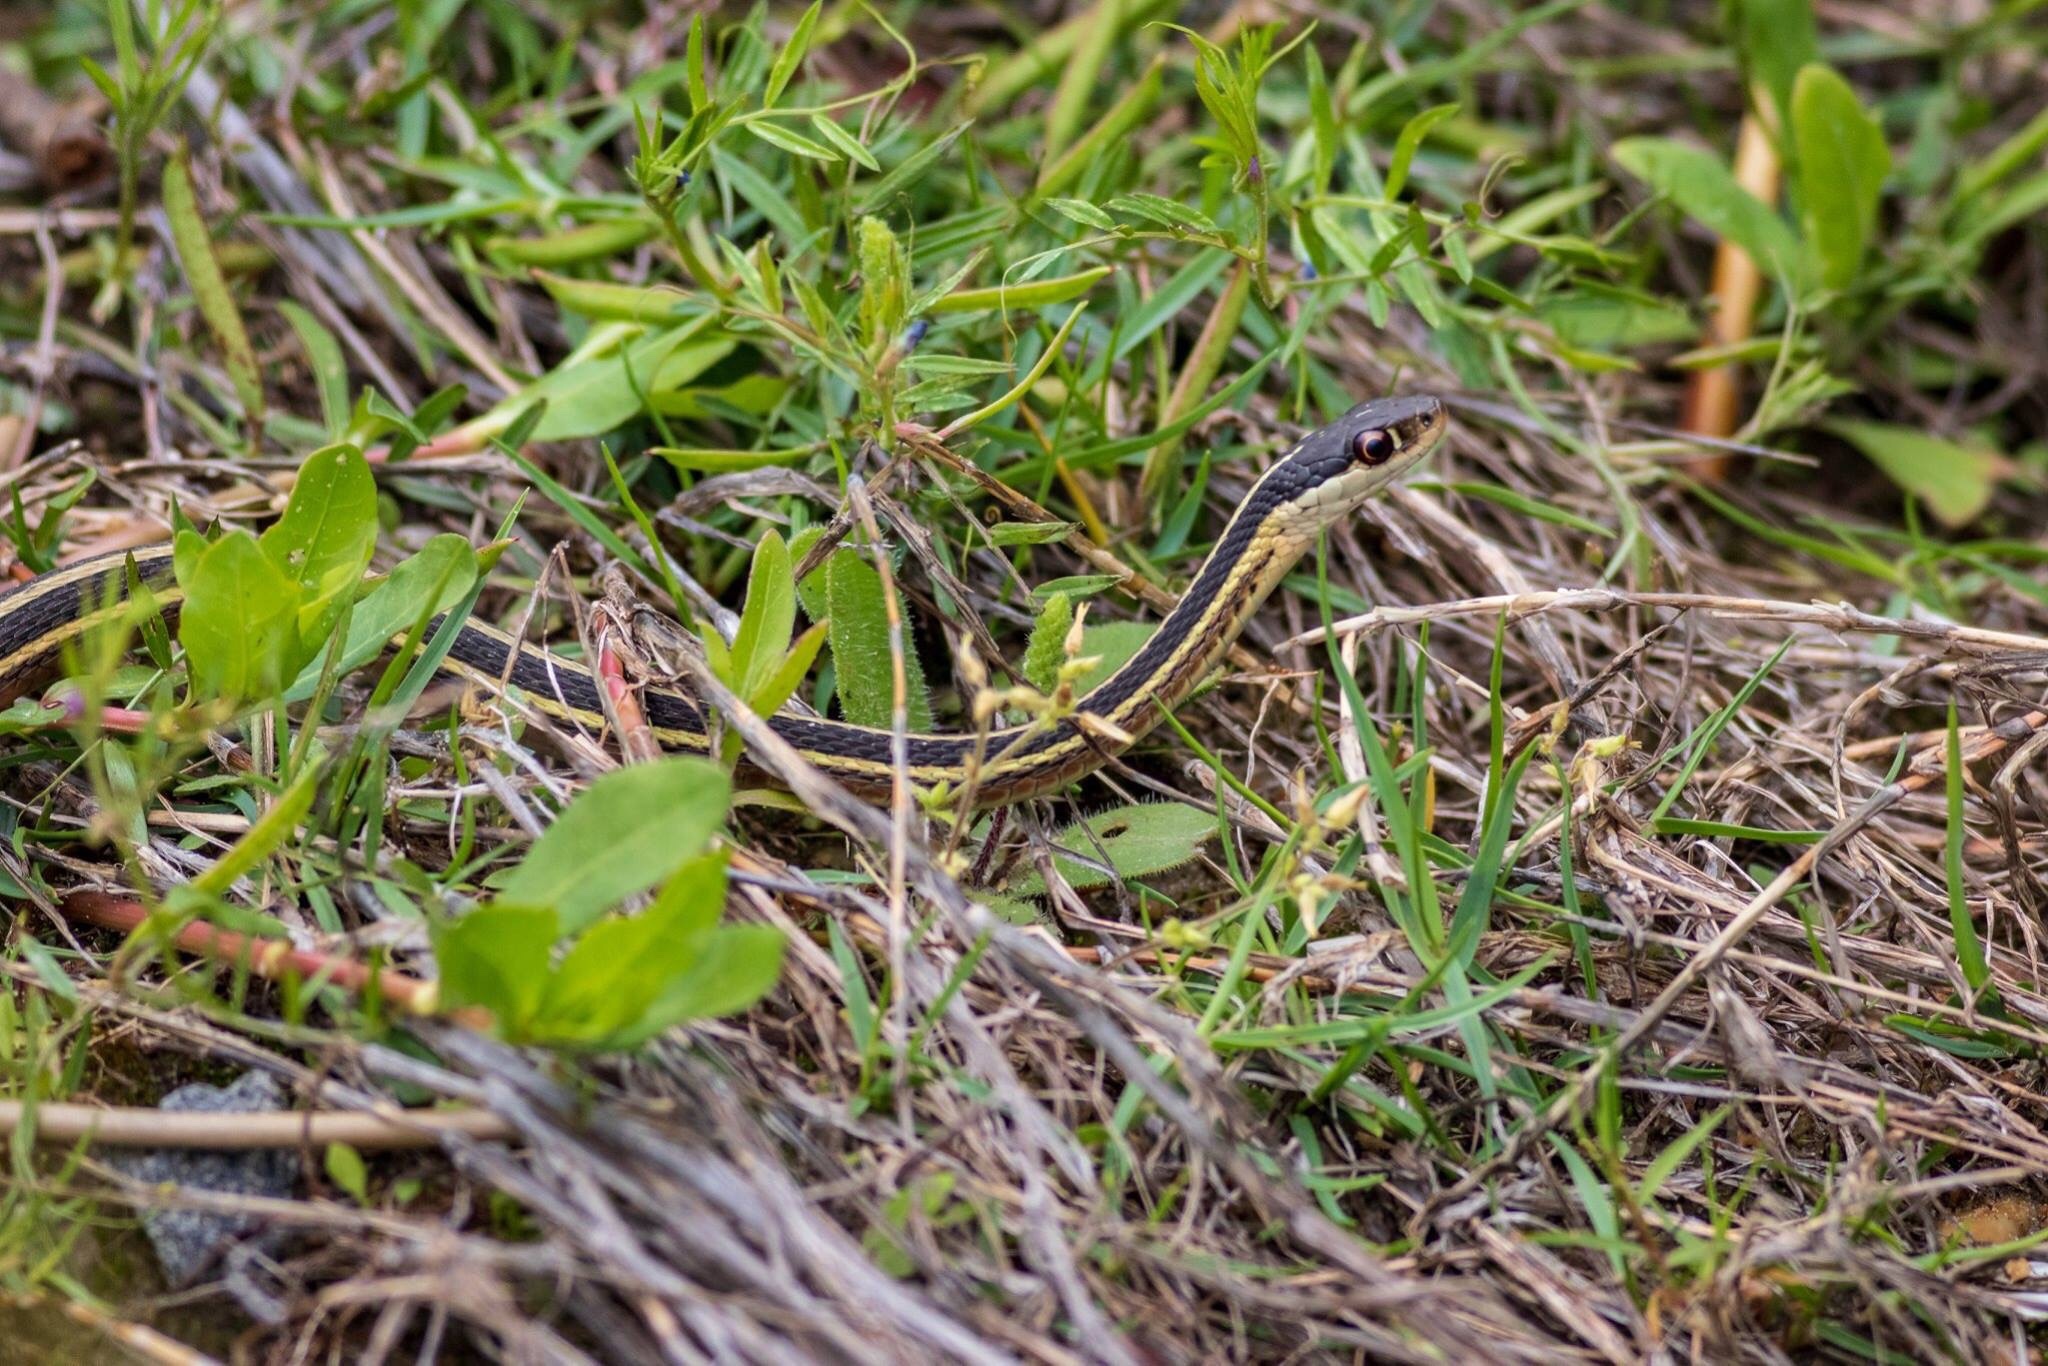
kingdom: Animalia
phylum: Chordata
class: Squamata
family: Colubridae
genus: Thamnophis
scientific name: Thamnophis saurita
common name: Eastern ribbonsnake
